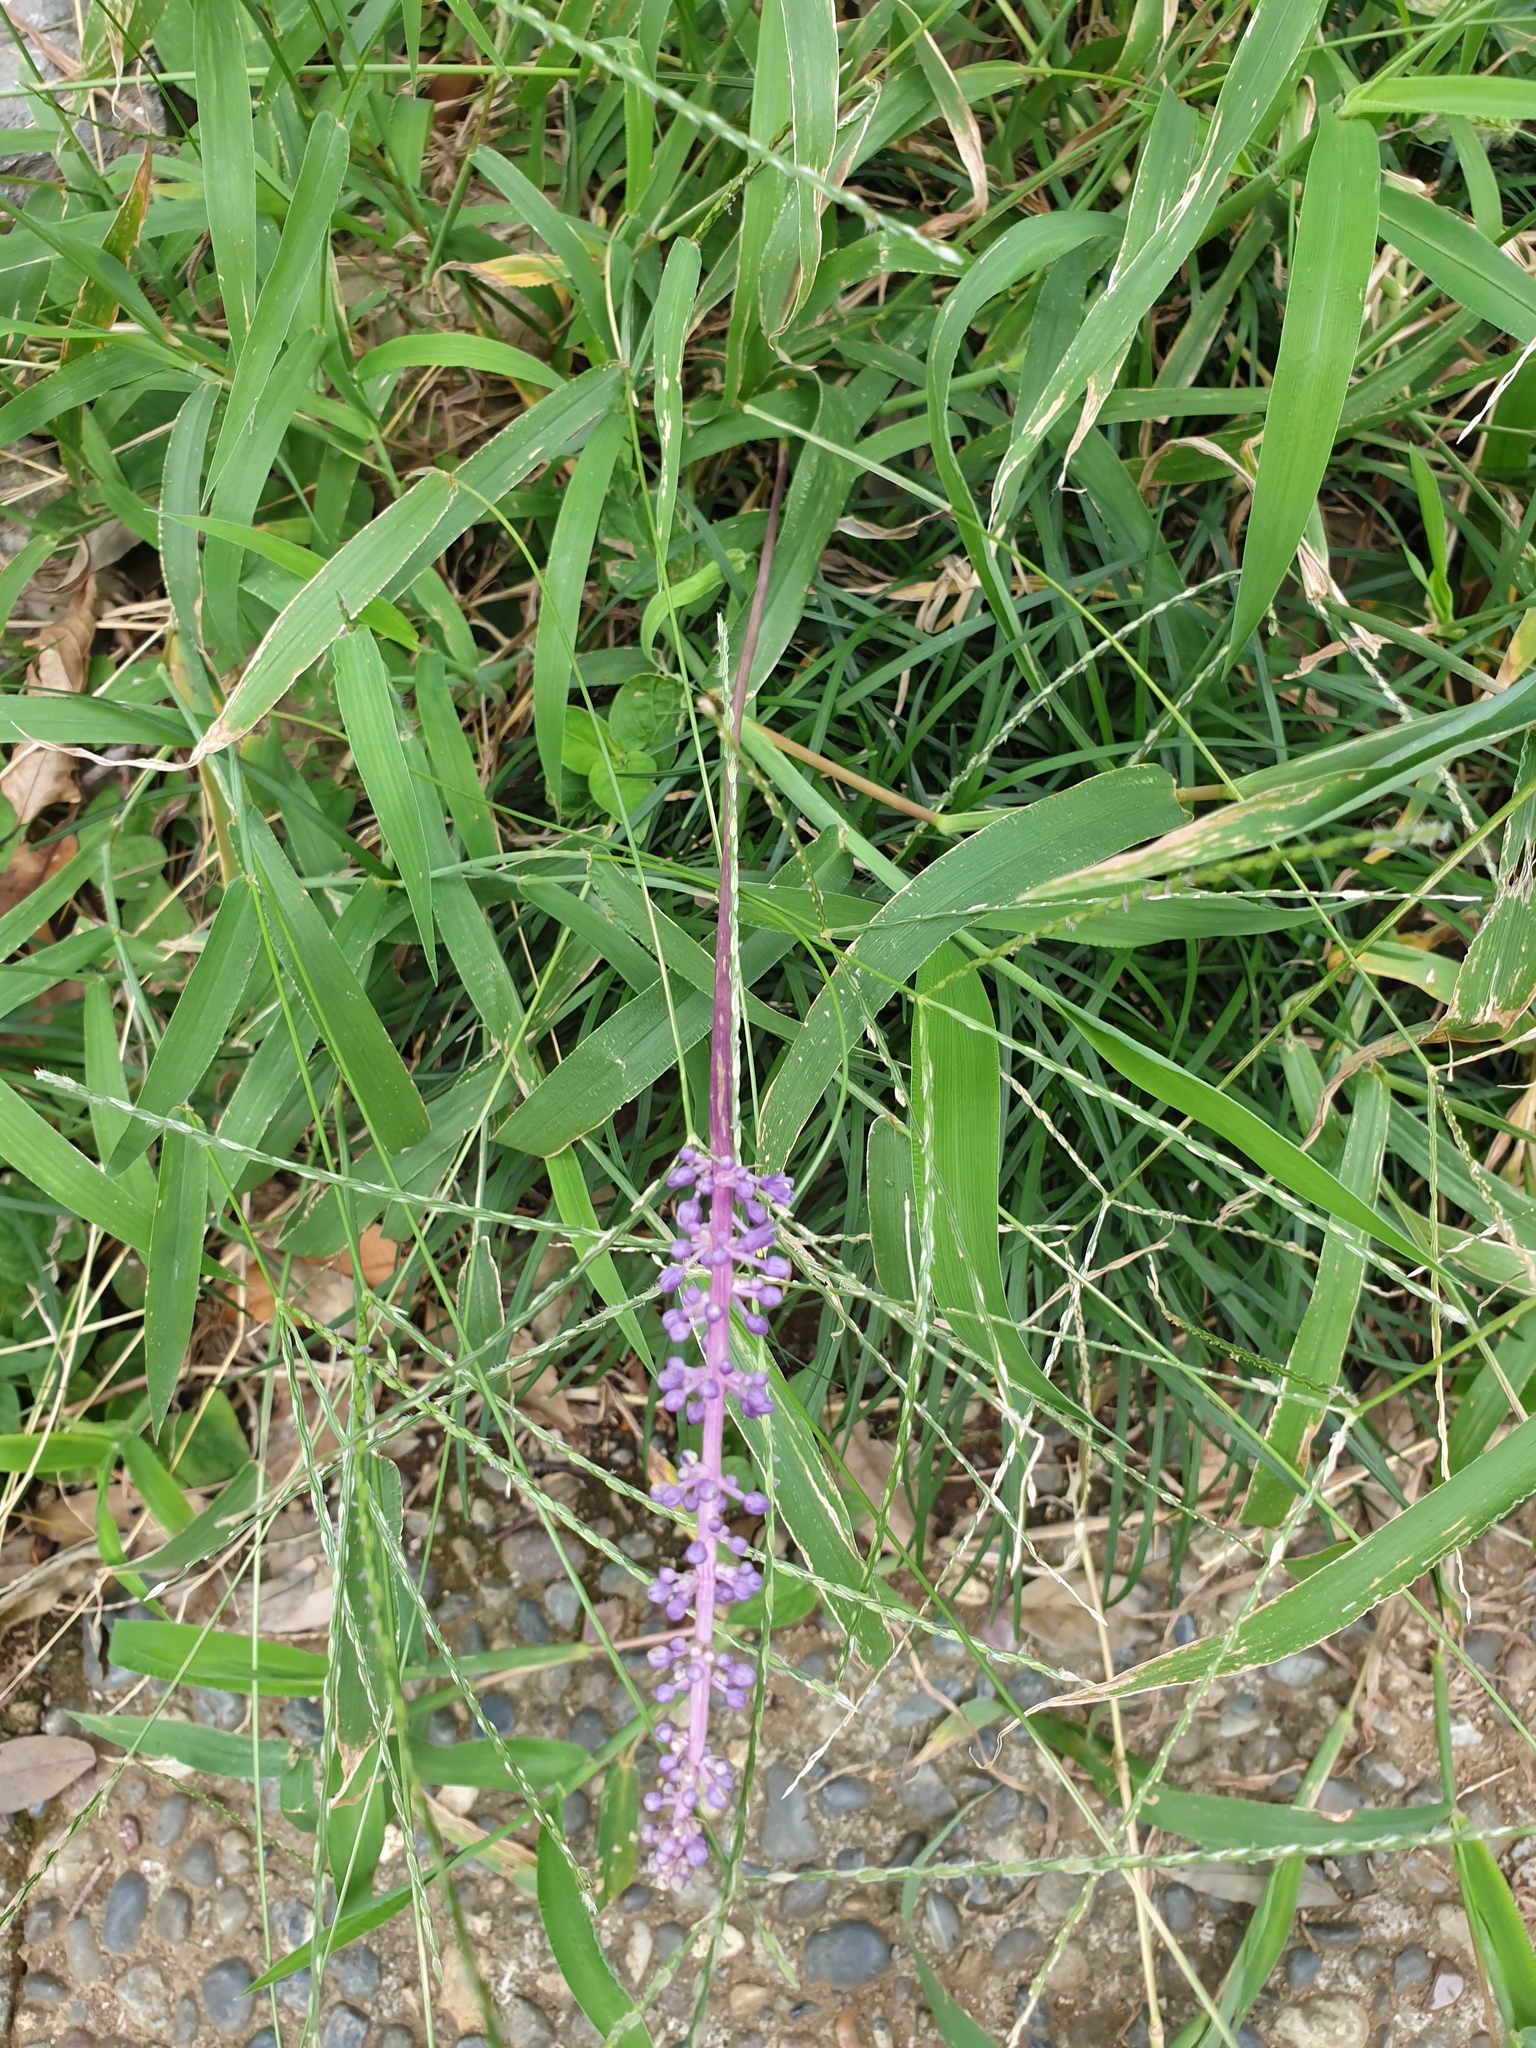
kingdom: Plantae
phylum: Tracheophyta
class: Liliopsida
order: Asparagales
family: Asparagaceae
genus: Liriope
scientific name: Liriope muscari
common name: Big blue lilyturf
